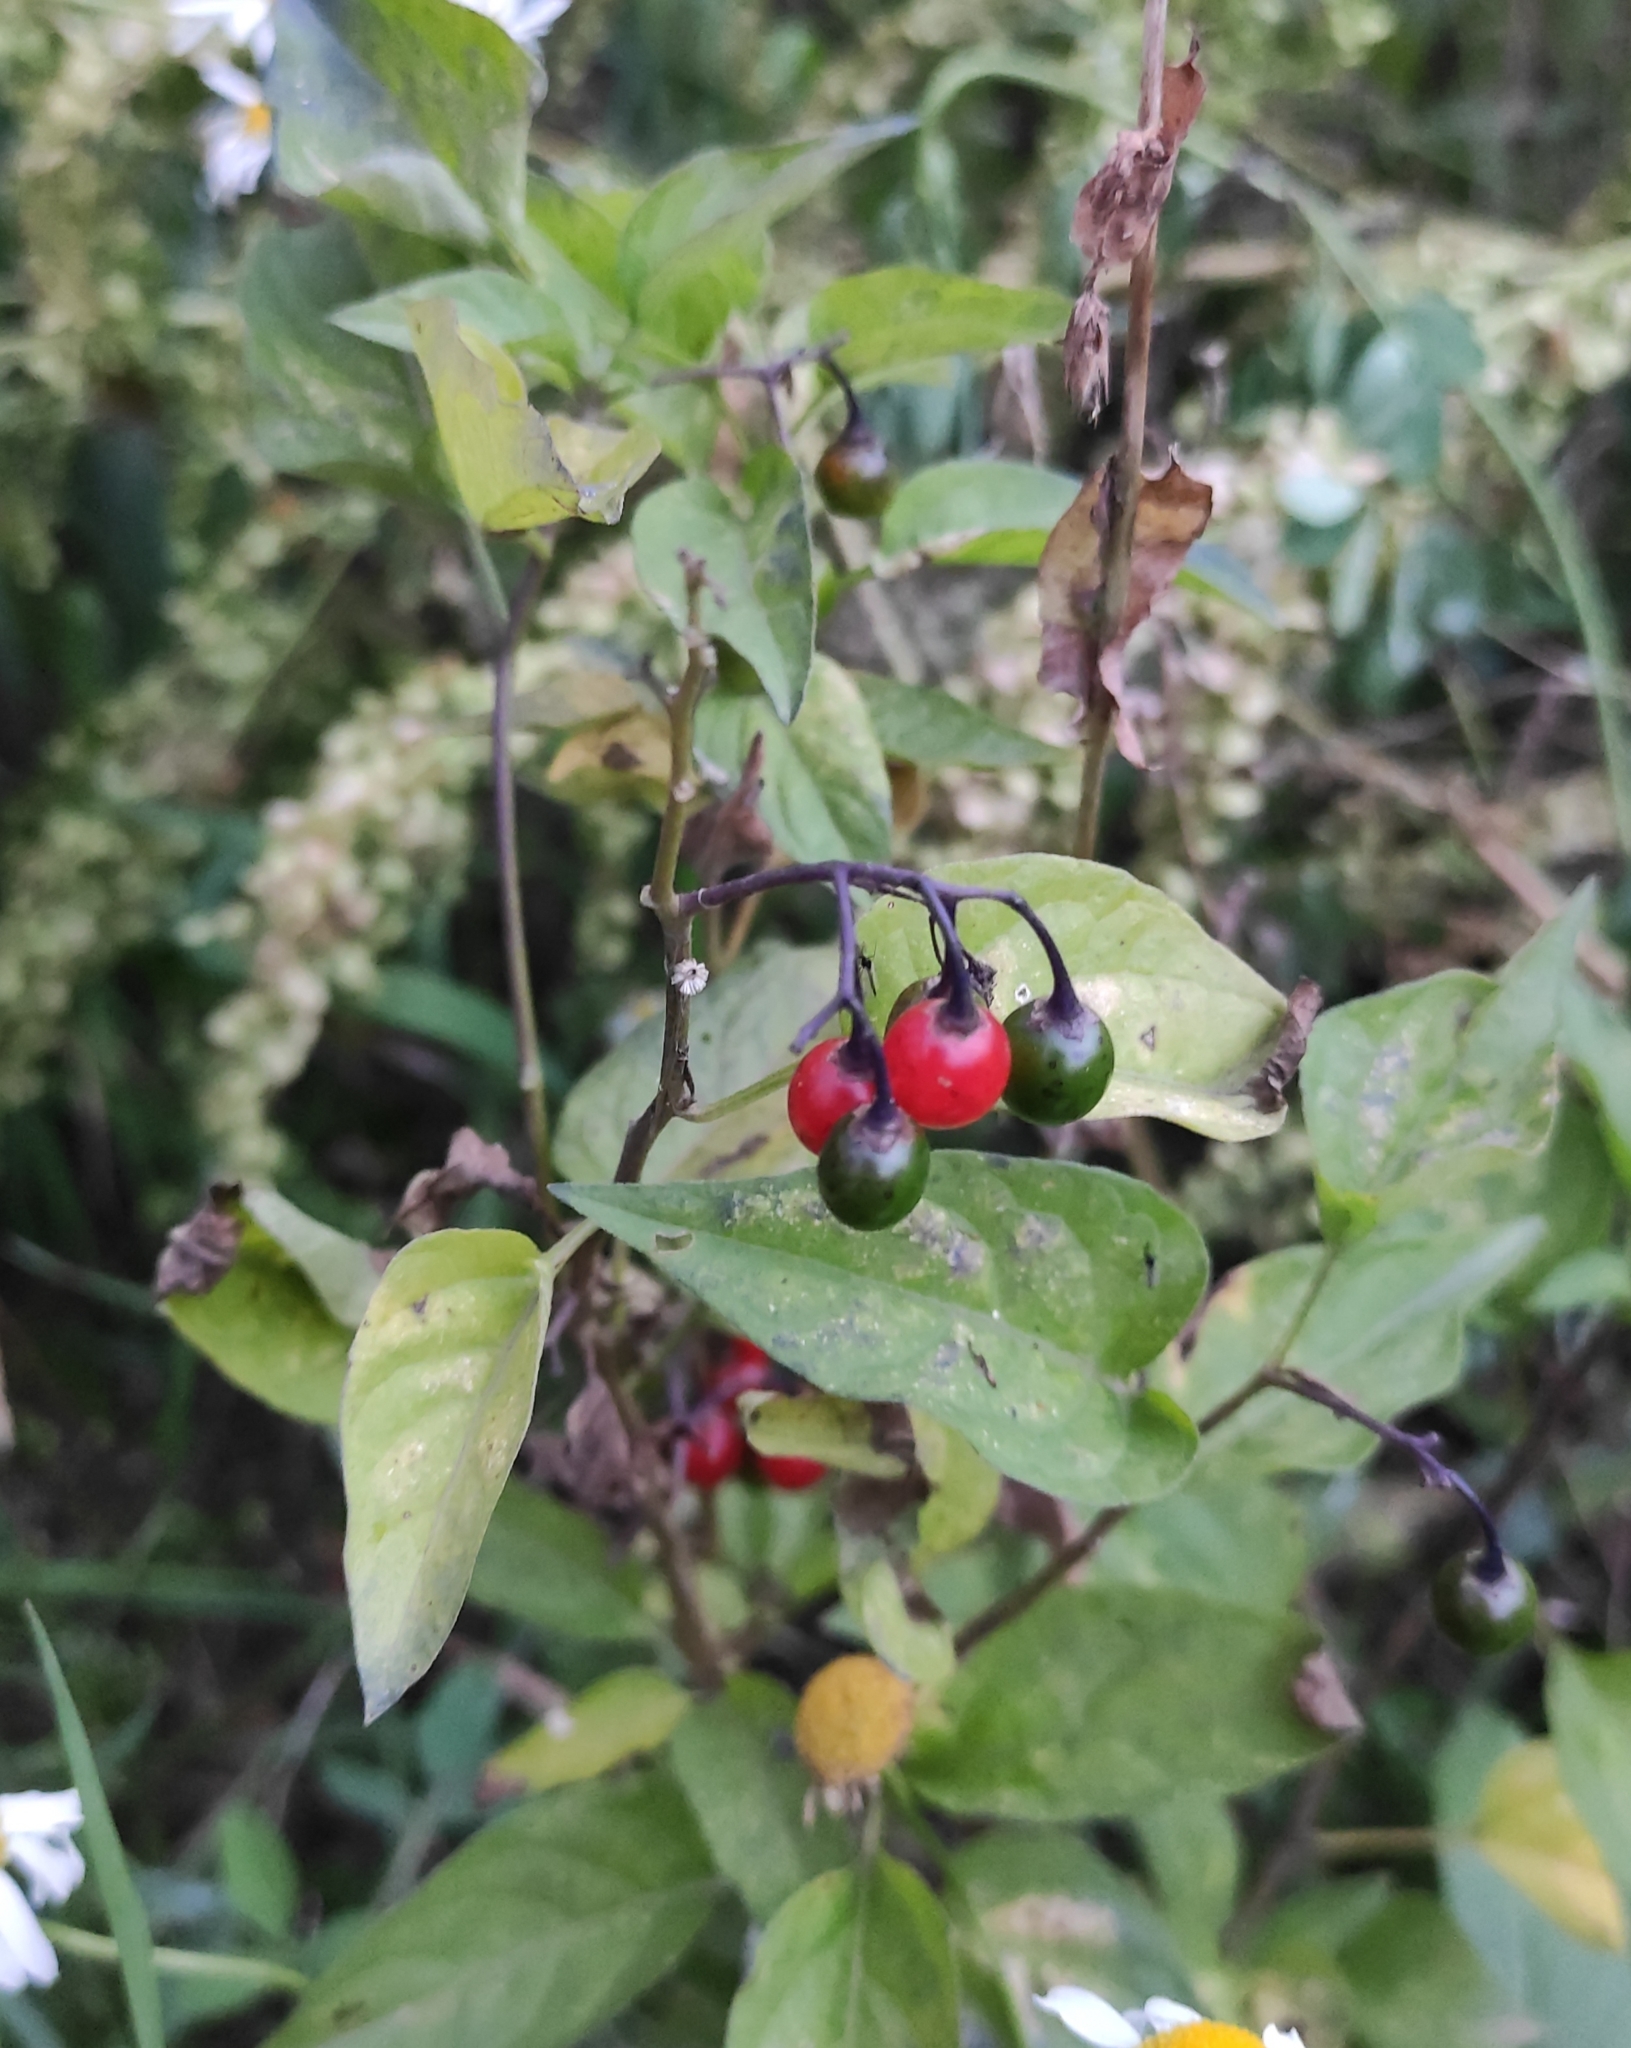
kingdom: Plantae
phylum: Tracheophyta
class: Magnoliopsida
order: Solanales
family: Solanaceae
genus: Solanum
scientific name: Solanum dulcamara
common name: Climbing nightshade
